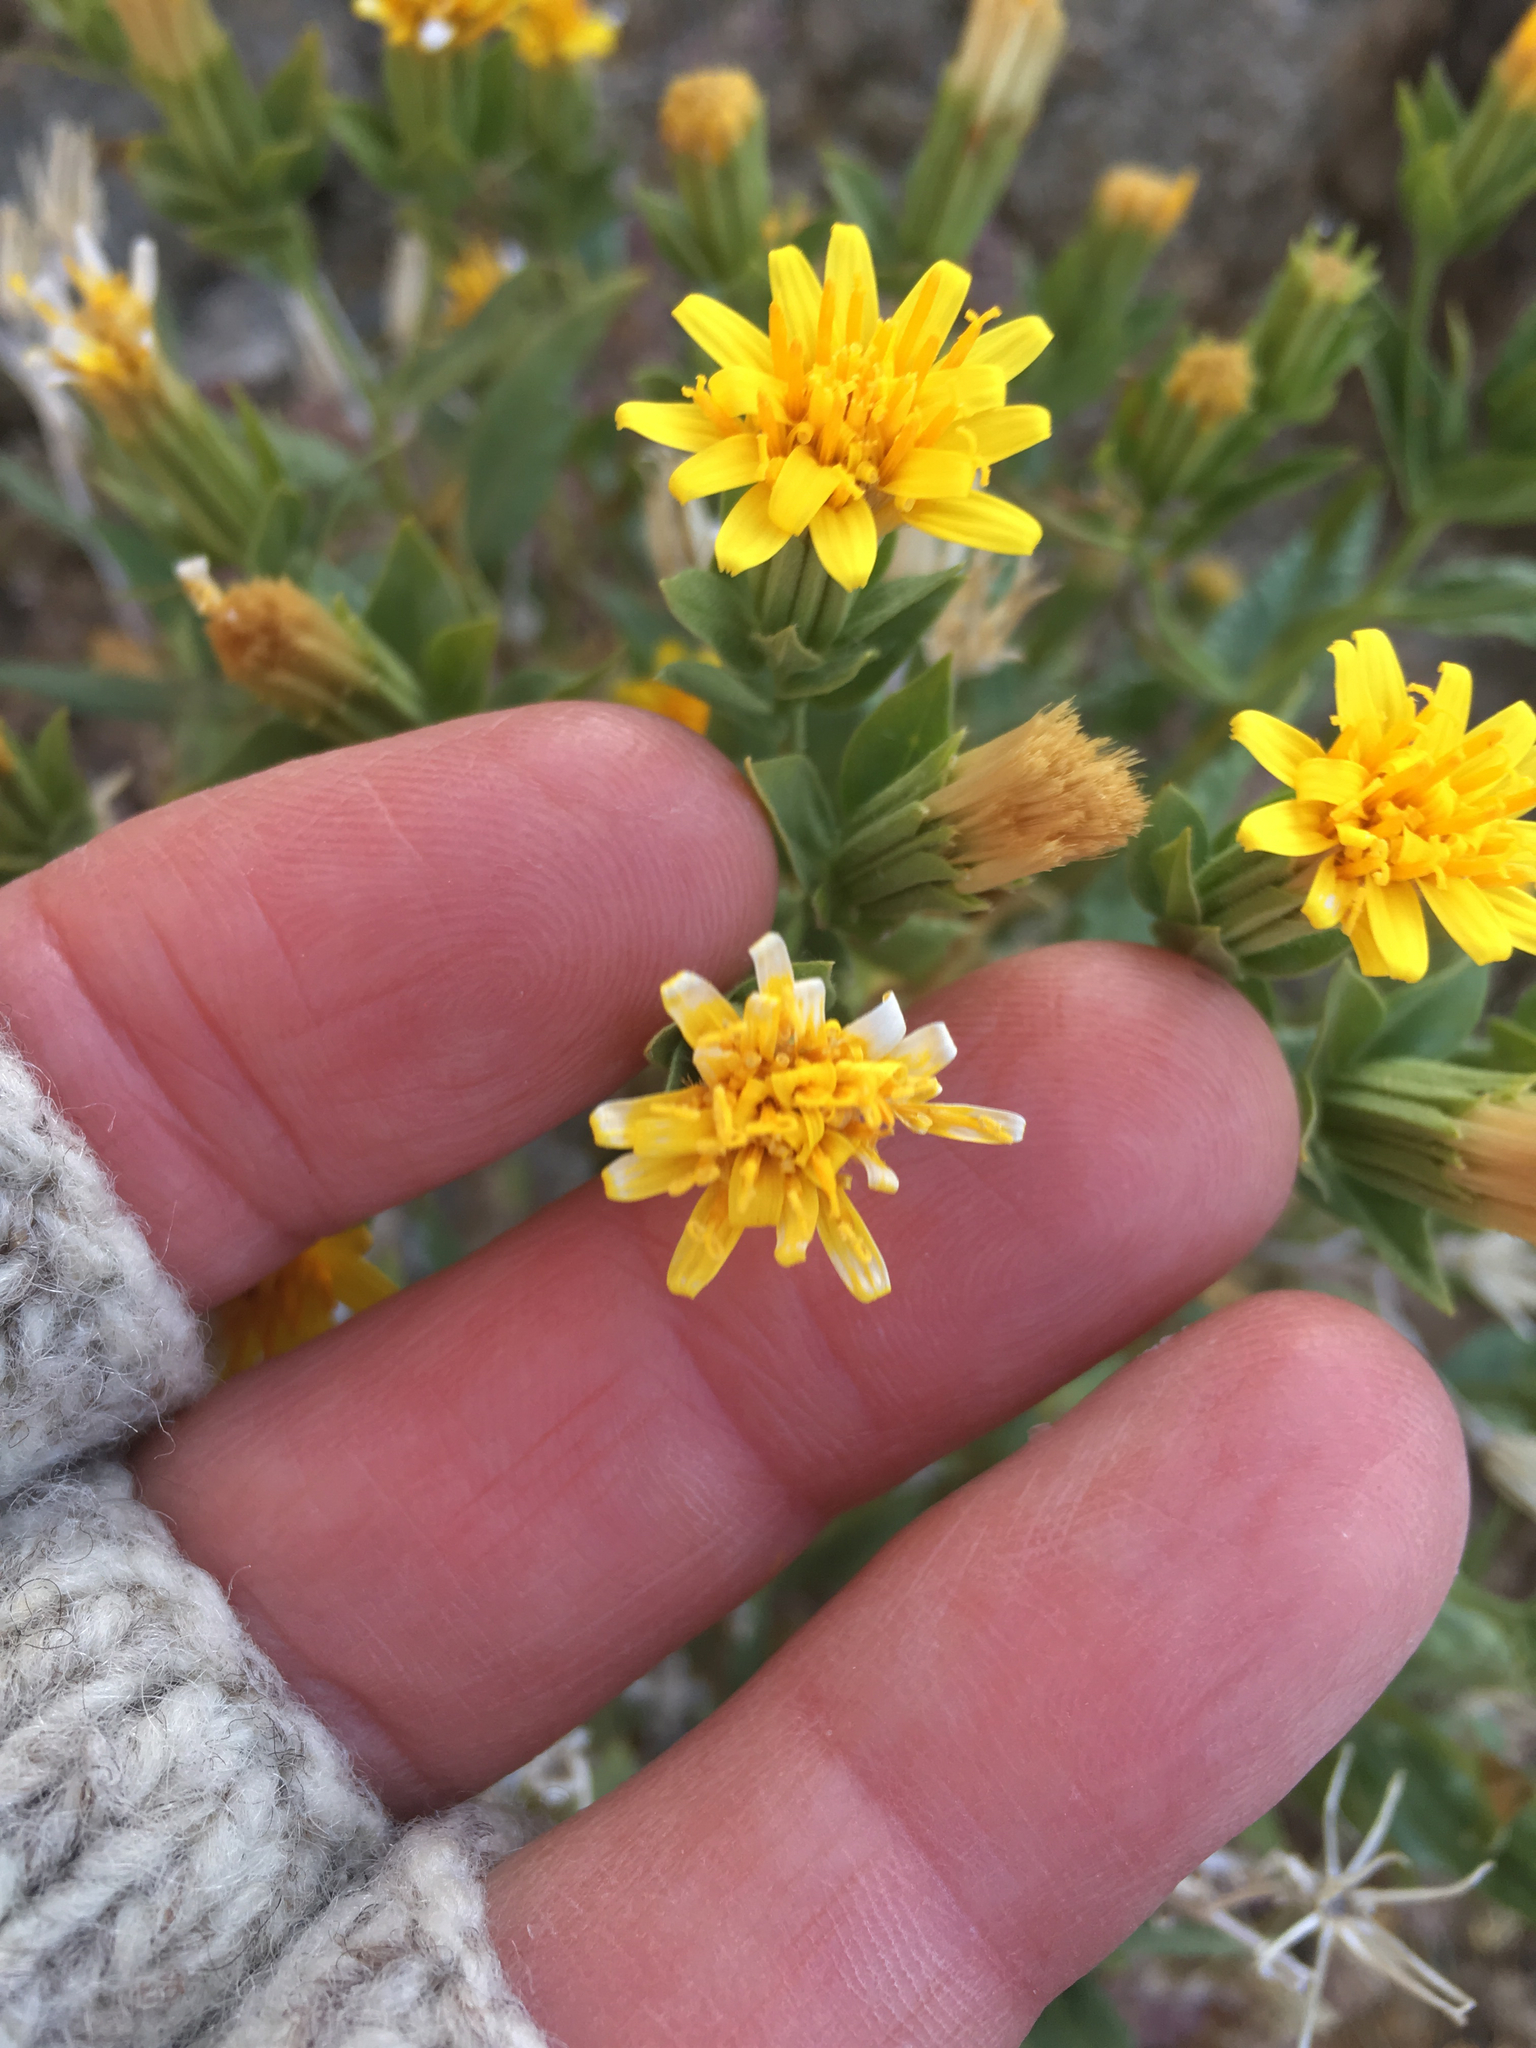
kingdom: Plantae
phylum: Tracheophyta
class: Magnoliopsida
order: Asterales
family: Asteraceae
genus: Trixis
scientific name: Trixis californica
